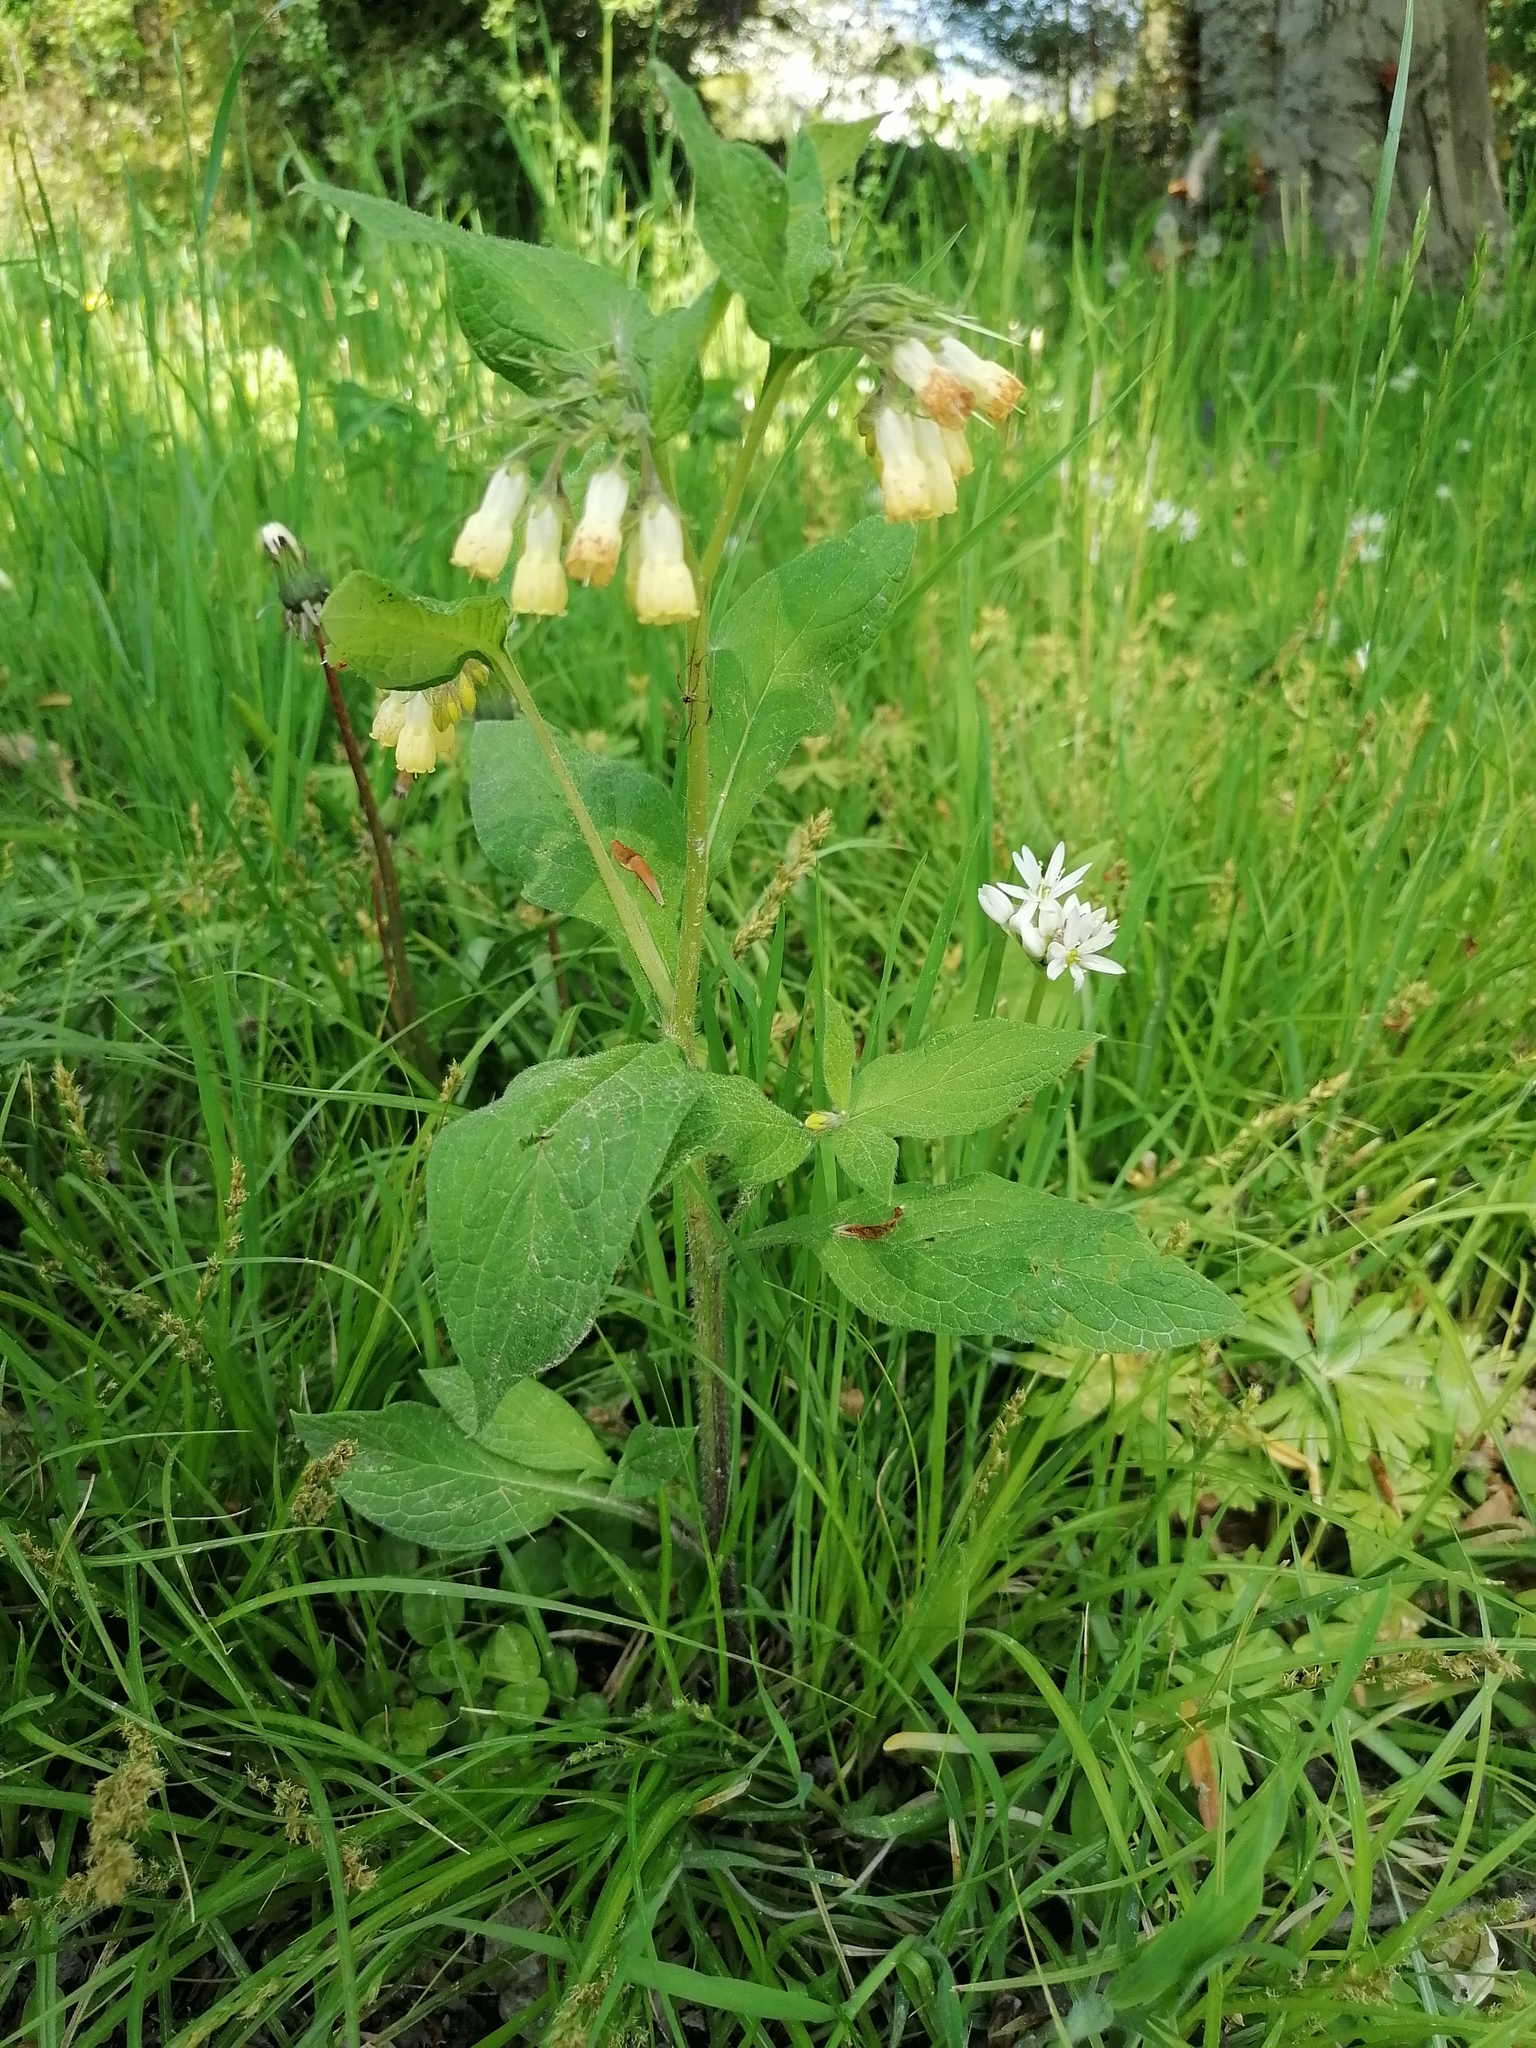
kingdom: Plantae
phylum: Tracheophyta
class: Magnoliopsida
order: Boraginales
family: Boraginaceae
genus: Symphytum
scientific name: Symphytum tuberosum
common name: Tuberous comfrey
